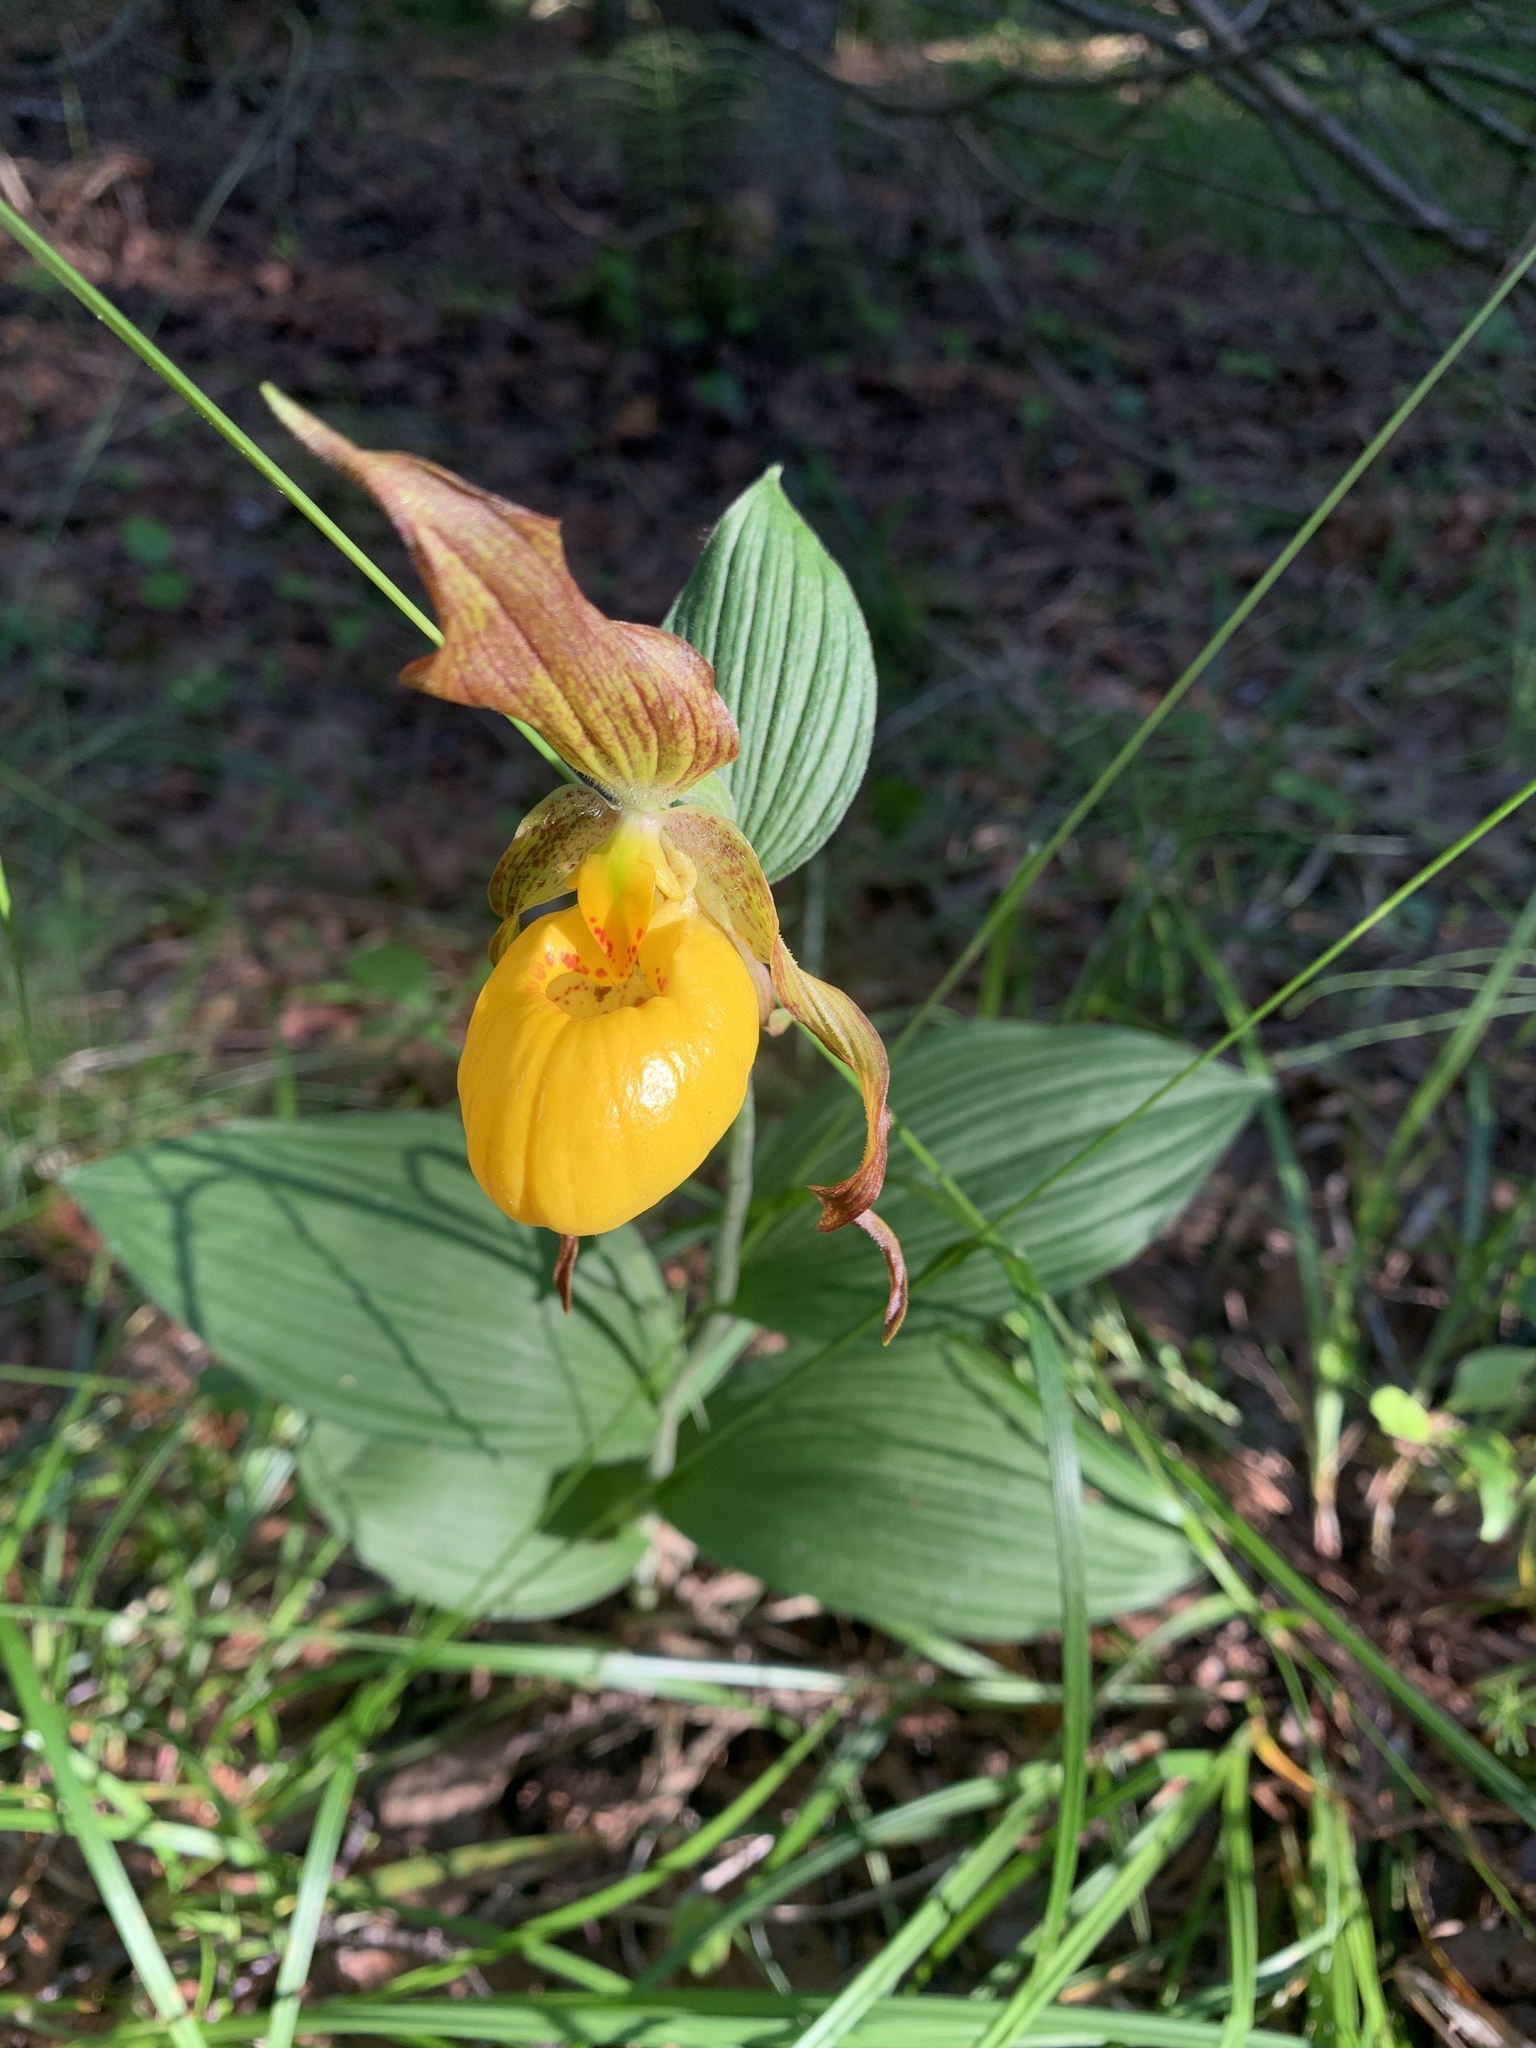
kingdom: Plantae
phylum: Tracheophyta
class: Liliopsida
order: Asparagales
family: Orchidaceae
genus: Cypripedium
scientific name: Cypripedium parviflorum
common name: American yellow lady's-slipper
